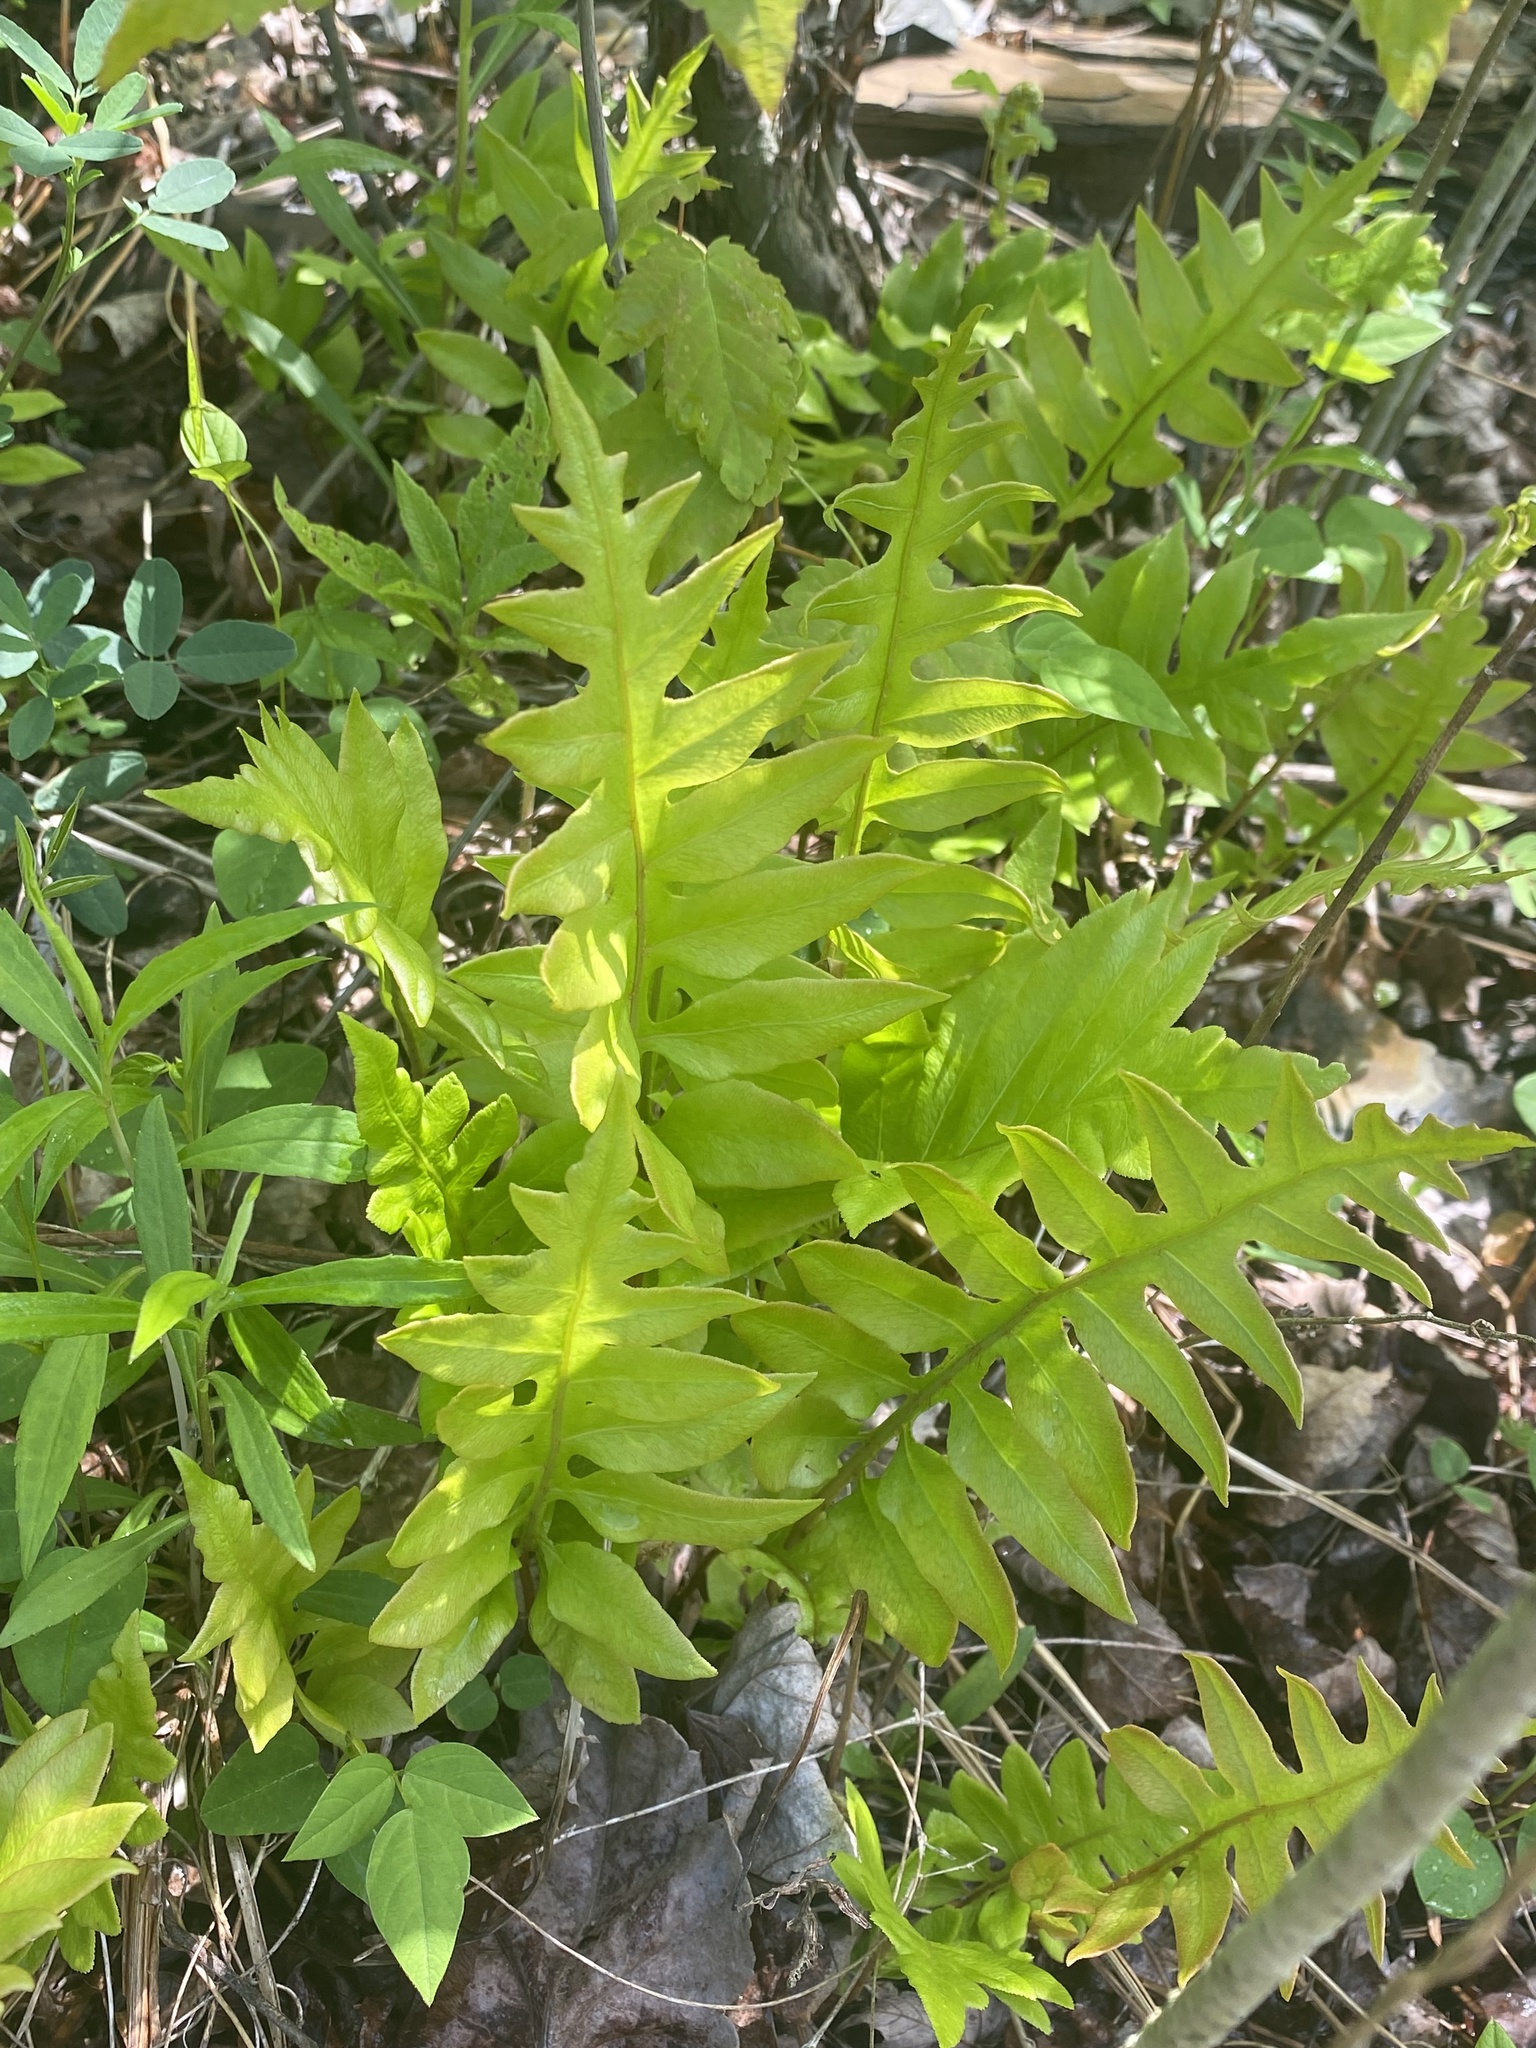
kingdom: Plantae
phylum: Tracheophyta
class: Polypodiopsida
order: Polypodiales
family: Blechnaceae
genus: Lorinseria
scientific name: Lorinseria areolata
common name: Dwarf chain fern
